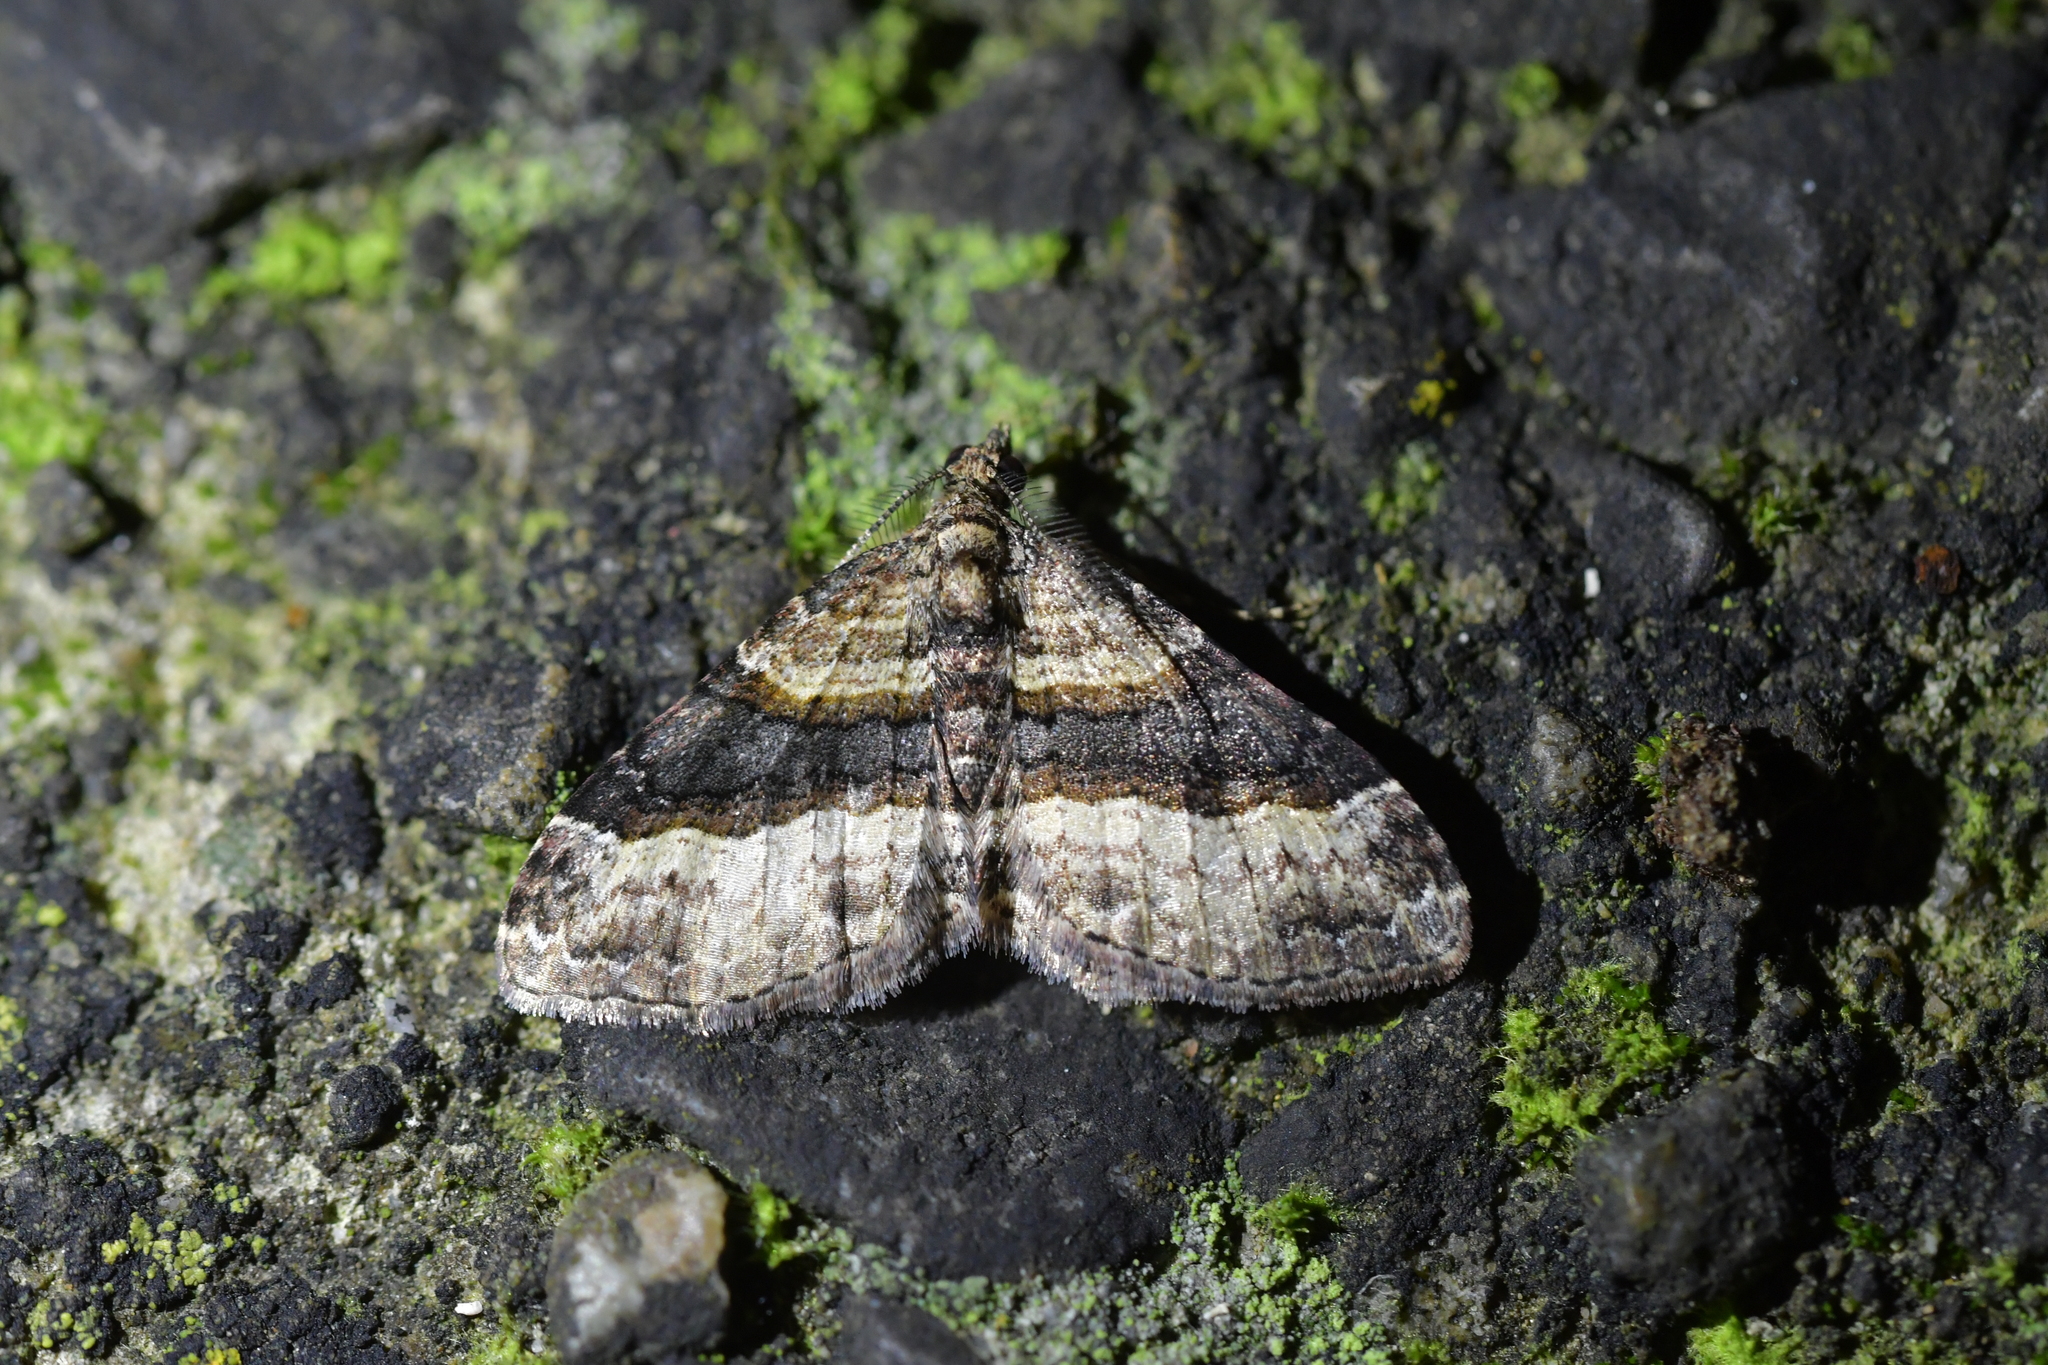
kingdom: Animalia
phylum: Arthropoda
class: Insecta
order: Lepidoptera
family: Geometridae
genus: Epyaxa
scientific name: Epyaxa lucidata
